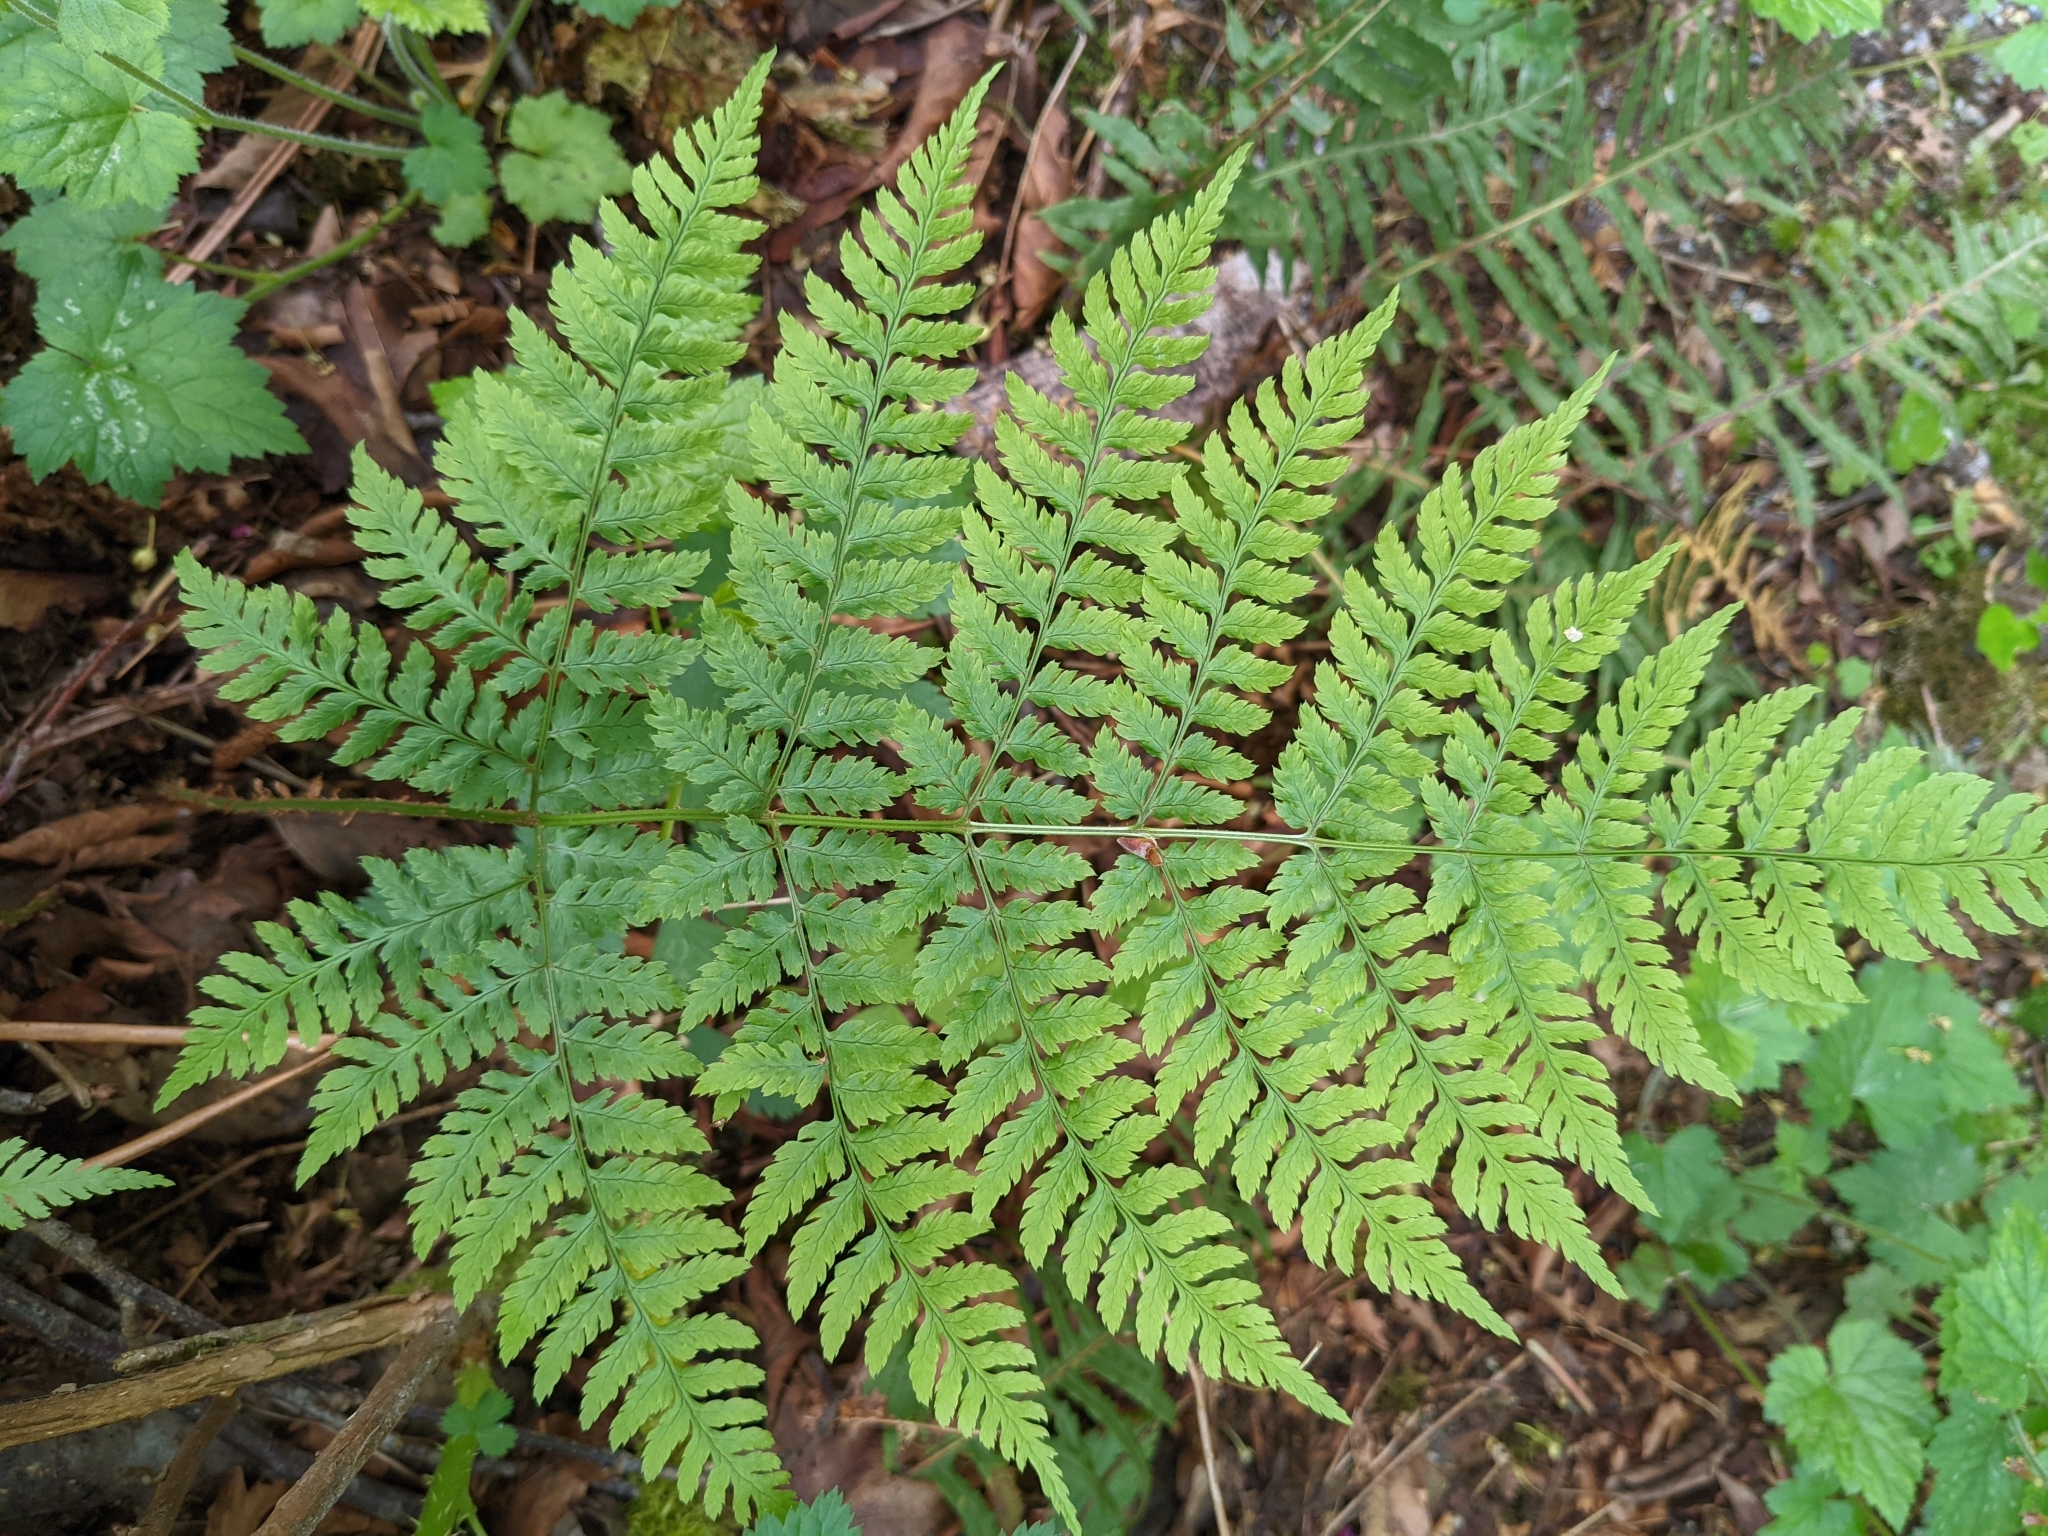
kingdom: Plantae
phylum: Tracheophyta
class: Polypodiopsida
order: Polypodiales
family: Dryopteridaceae
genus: Dryopteris
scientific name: Dryopteris expansa
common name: Northern buckler fern
